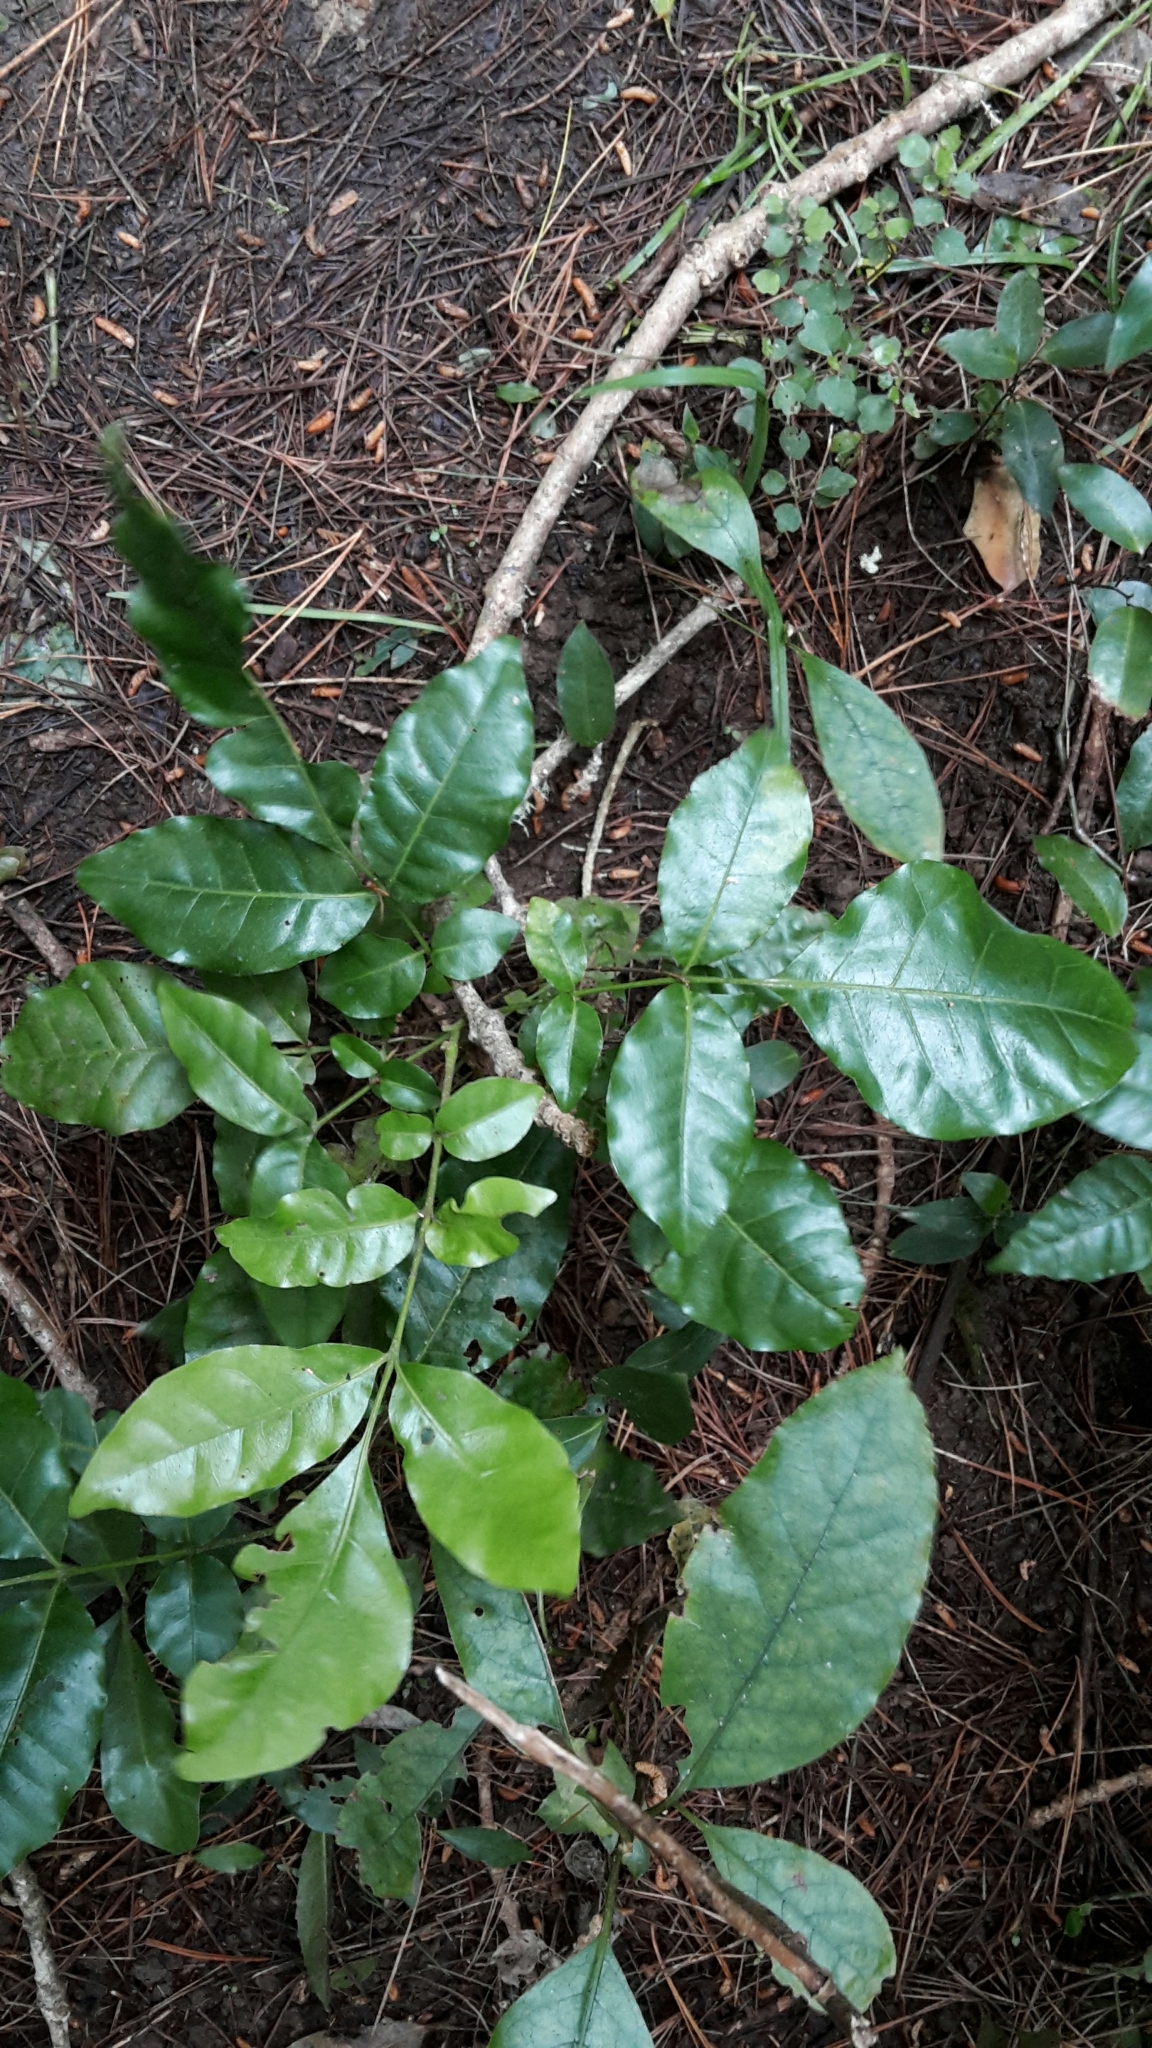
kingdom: Plantae
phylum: Tracheophyta
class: Magnoliopsida
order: Sapindales
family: Meliaceae
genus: Didymocheton
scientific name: Didymocheton spectabilis
